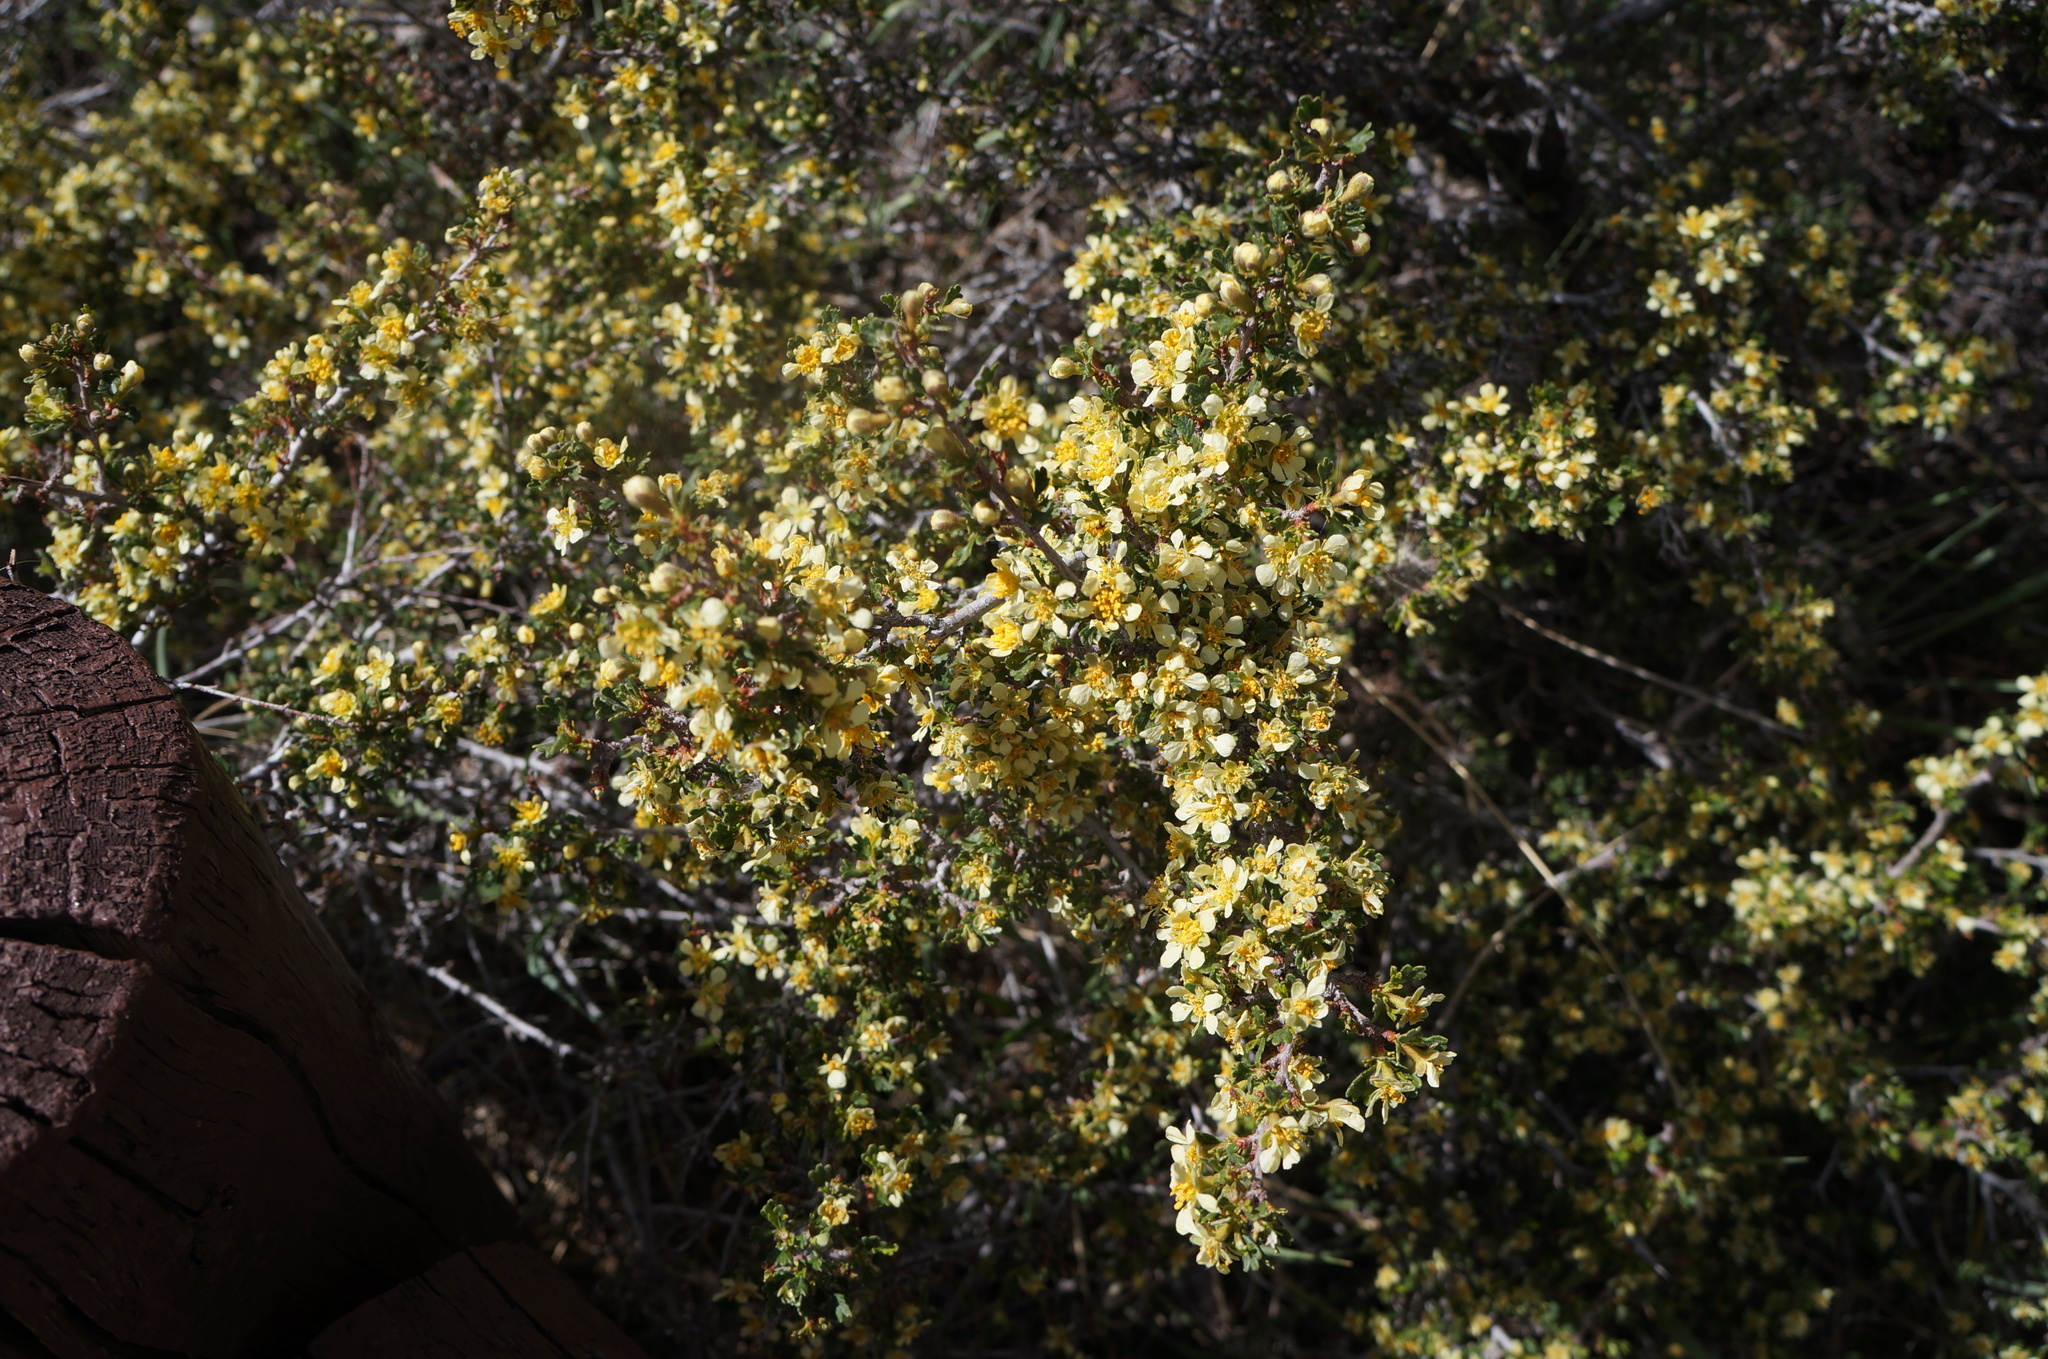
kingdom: Plantae
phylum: Tracheophyta
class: Magnoliopsida
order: Rosales
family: Rosaceae
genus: Purshia
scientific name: Purshia tridentata
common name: Antelope bitterbrush
